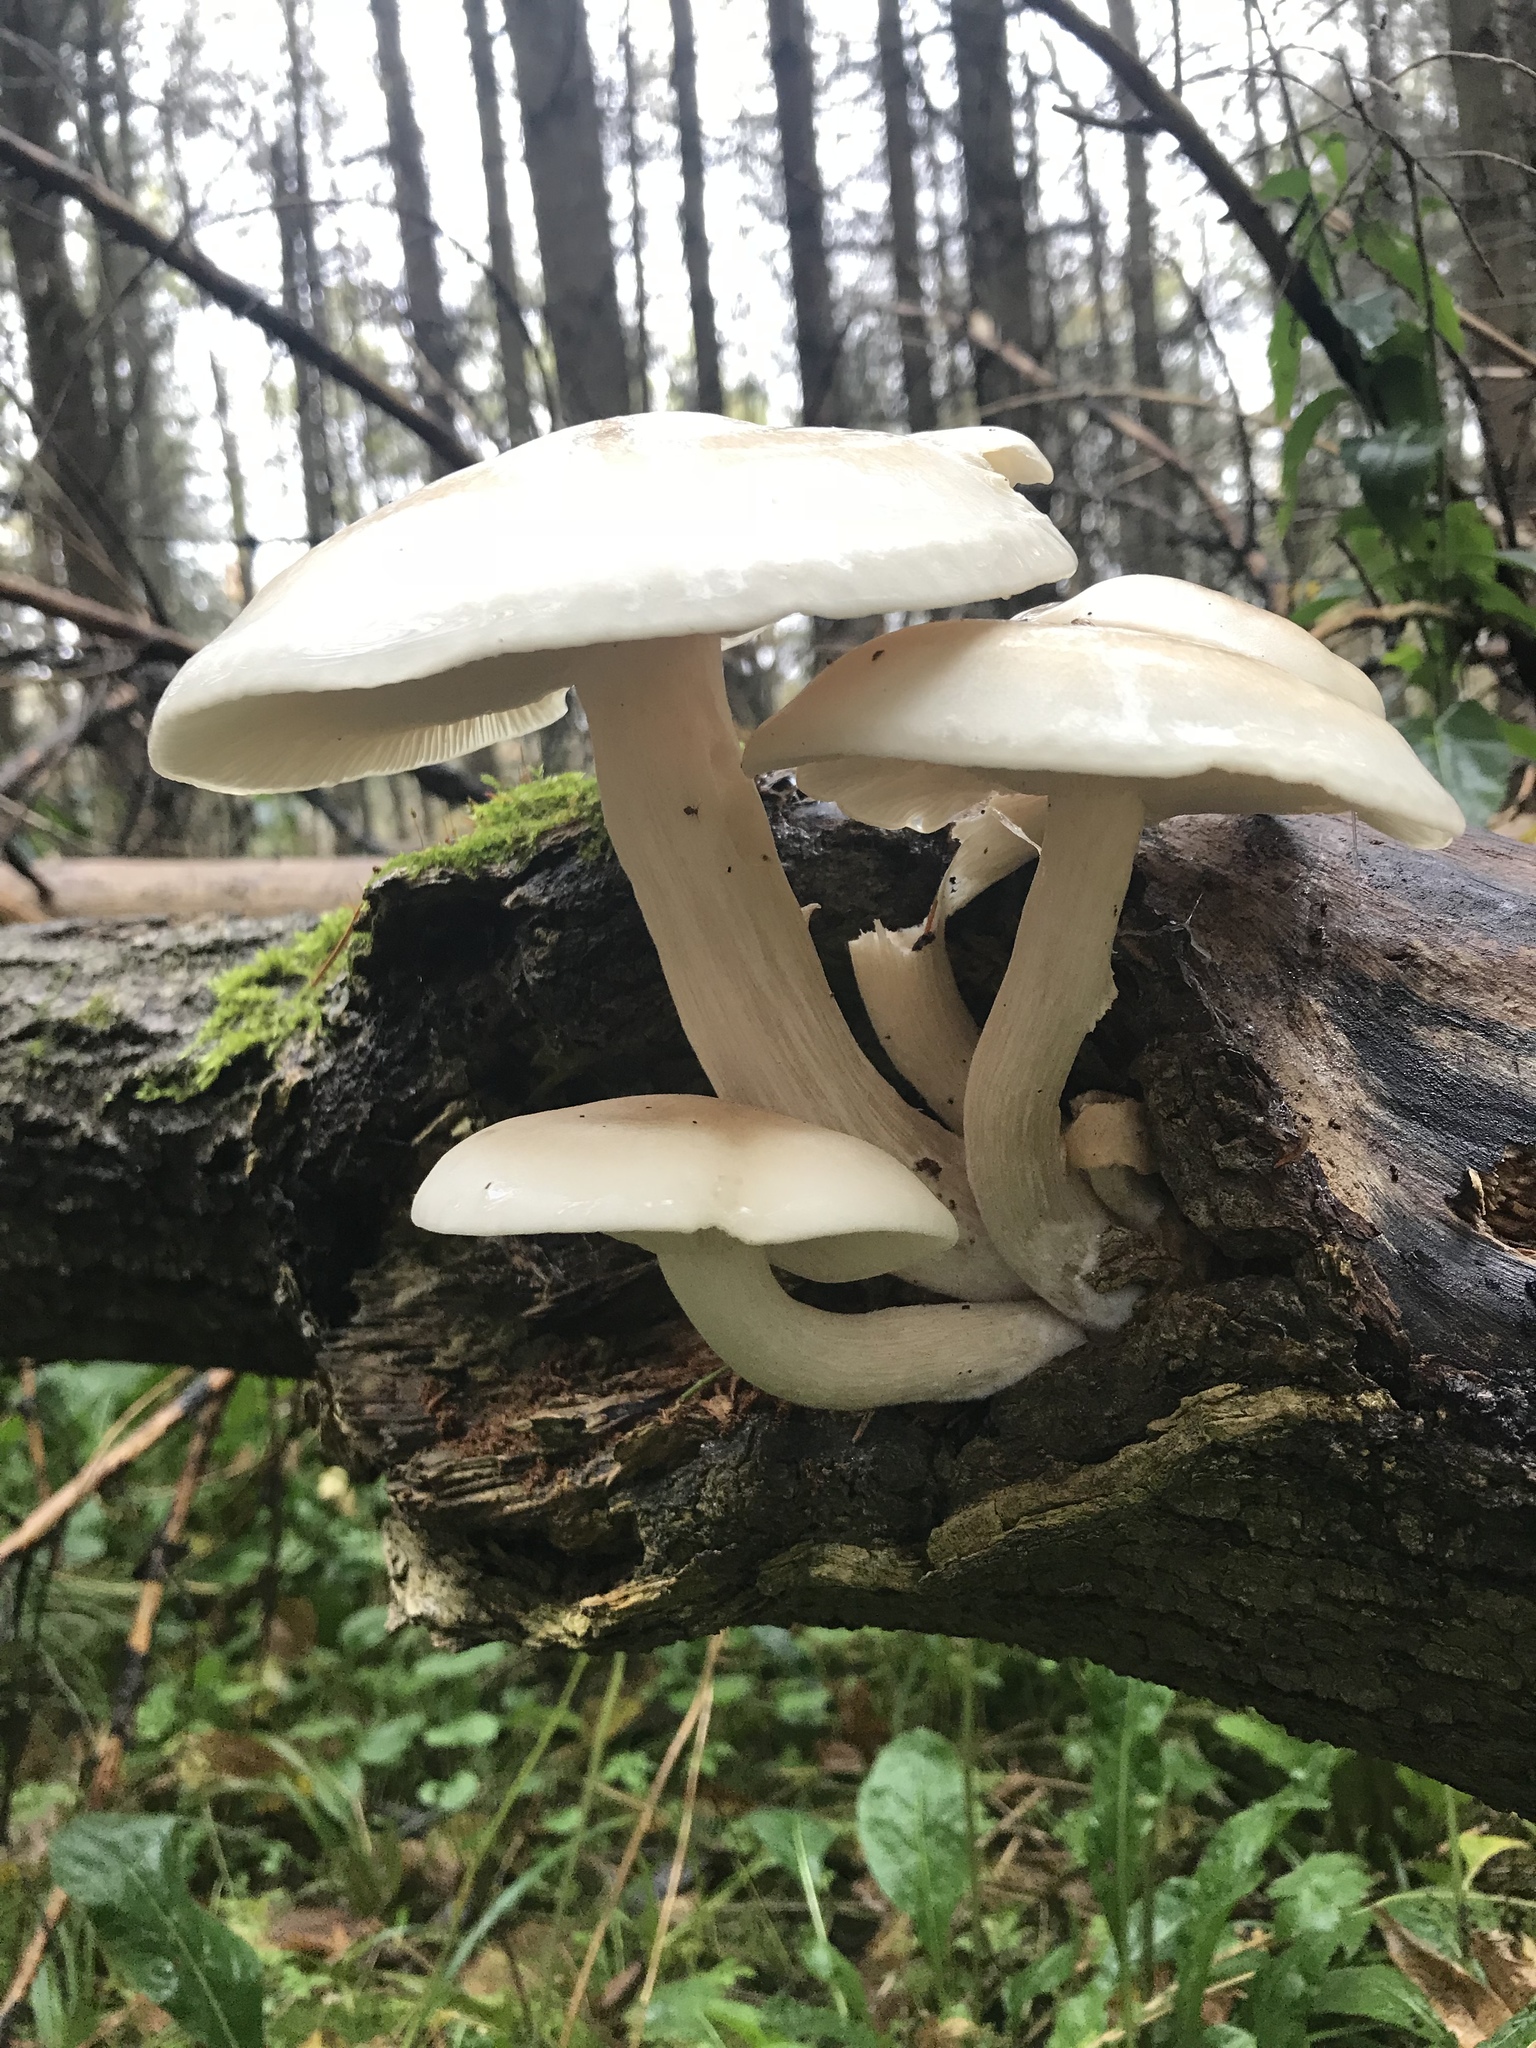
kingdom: Fungi
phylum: Basidiomycota
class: Agaricomycetes
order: Agaricales
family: Lyophyllaceae
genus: Hypsizygus
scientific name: Hypsizygus ulmarius
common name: Elm leech
